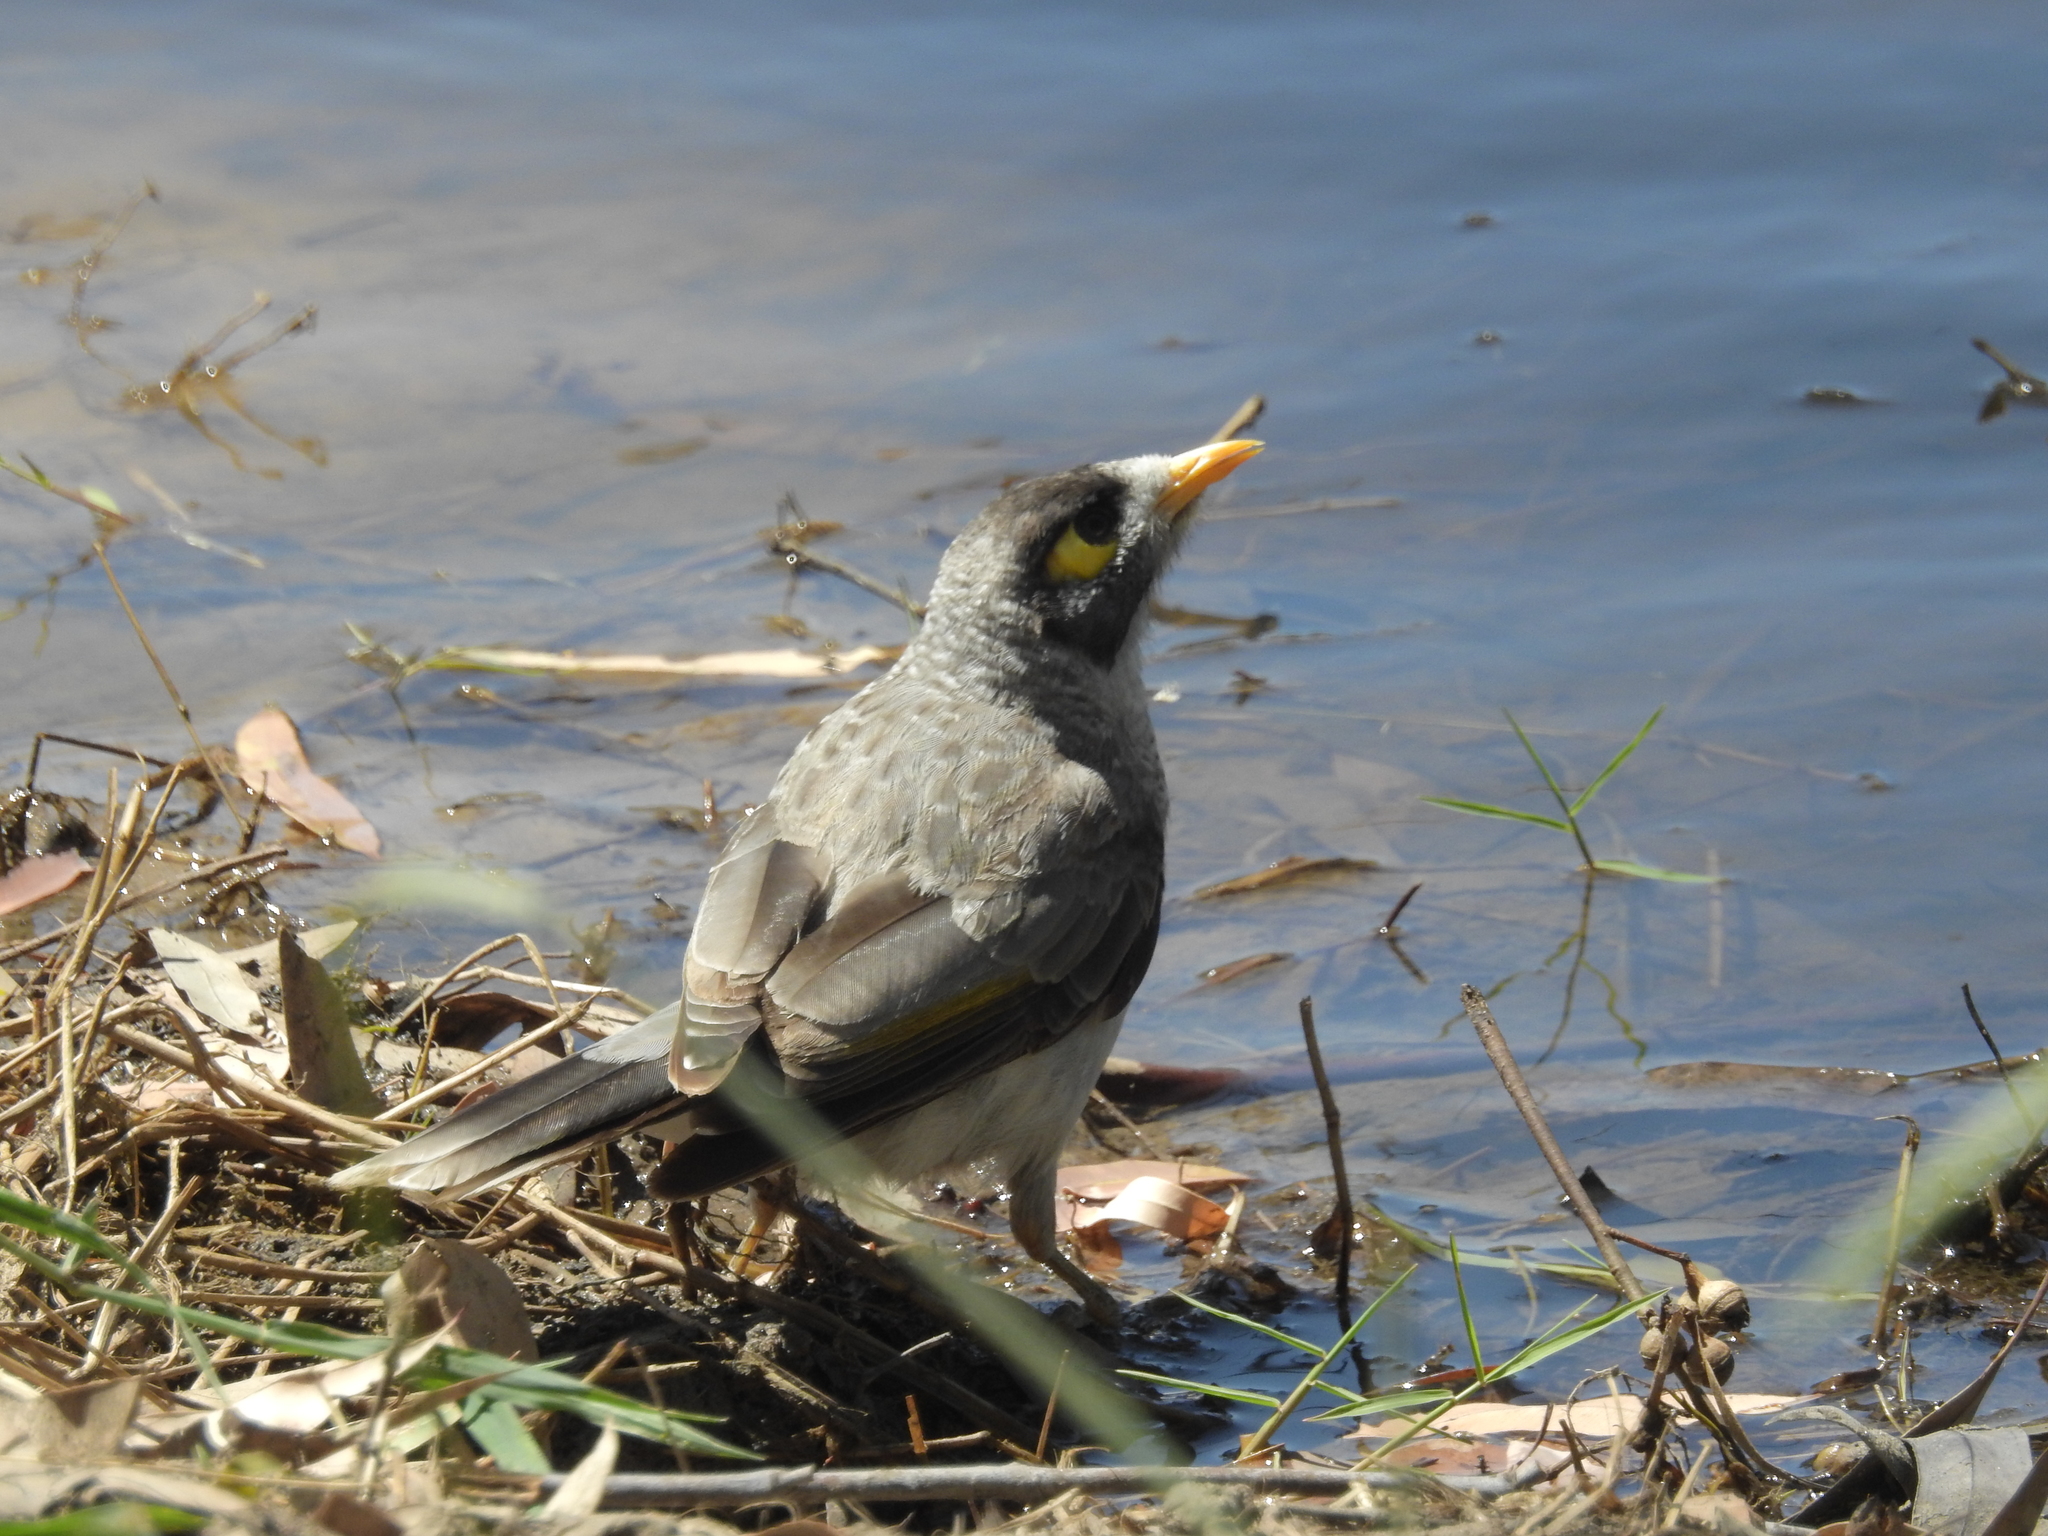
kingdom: Animalia
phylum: Chordata
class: Aves
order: Passeriformes
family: Meliphagidae
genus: Manorina
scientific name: Manorina melanocephala
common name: Noisy miner
